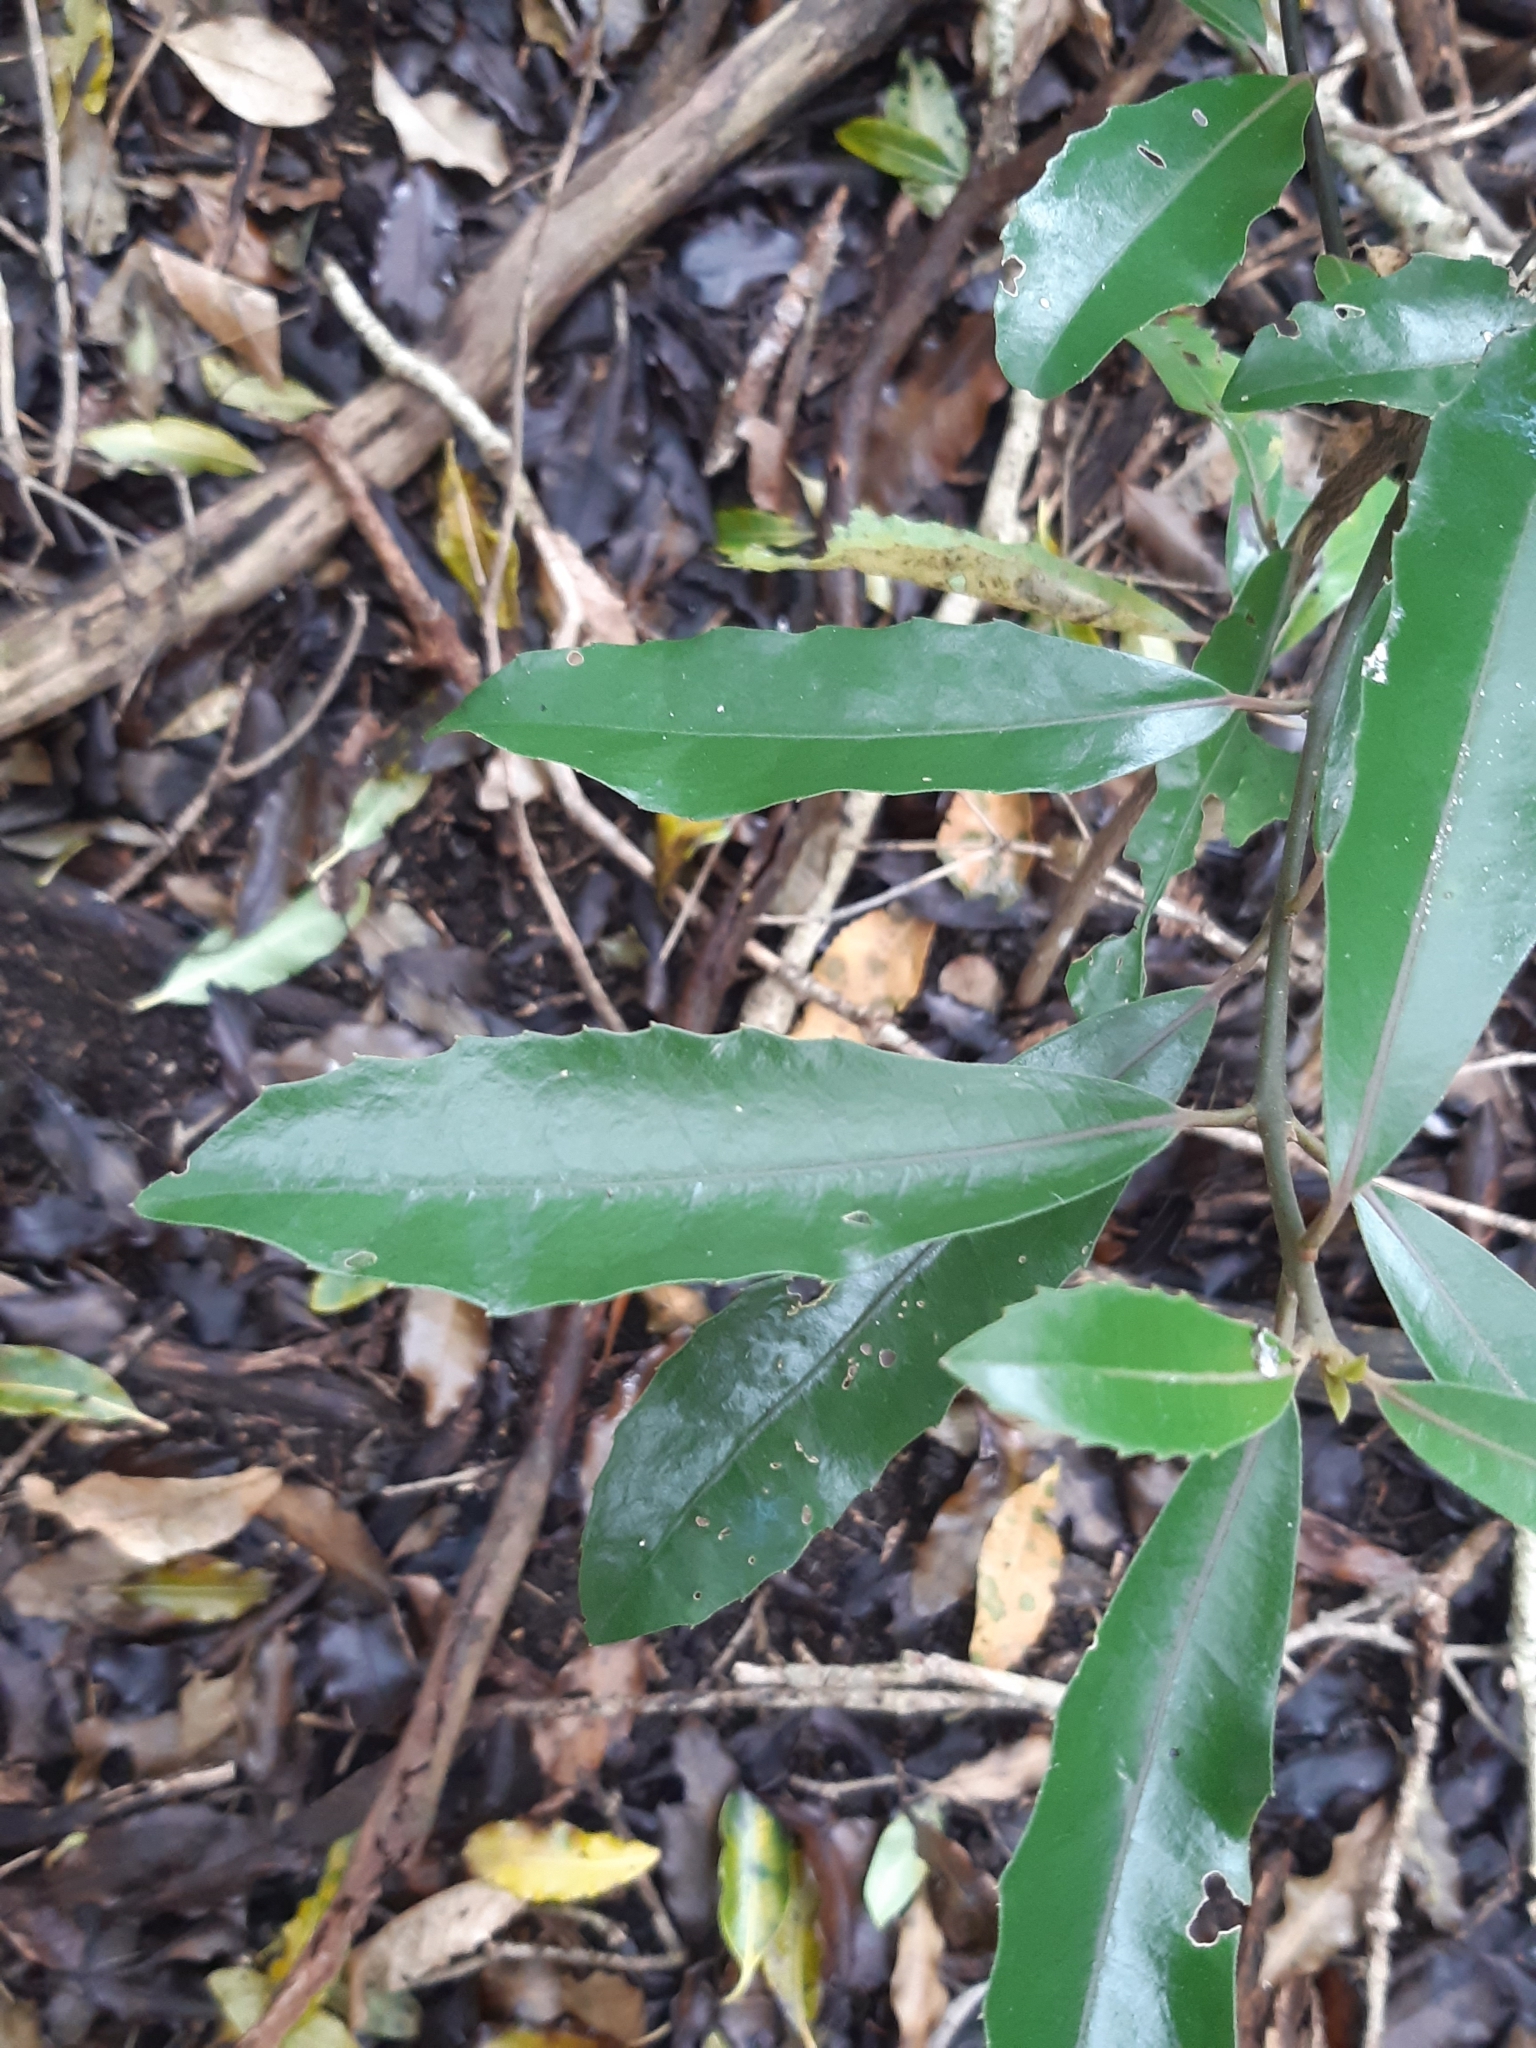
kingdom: Plantae
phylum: Tracheophyta
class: Magnoliopsida
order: Laurales
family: Monimiaceae
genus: Hedycarya
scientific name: Hedycarya arborea
